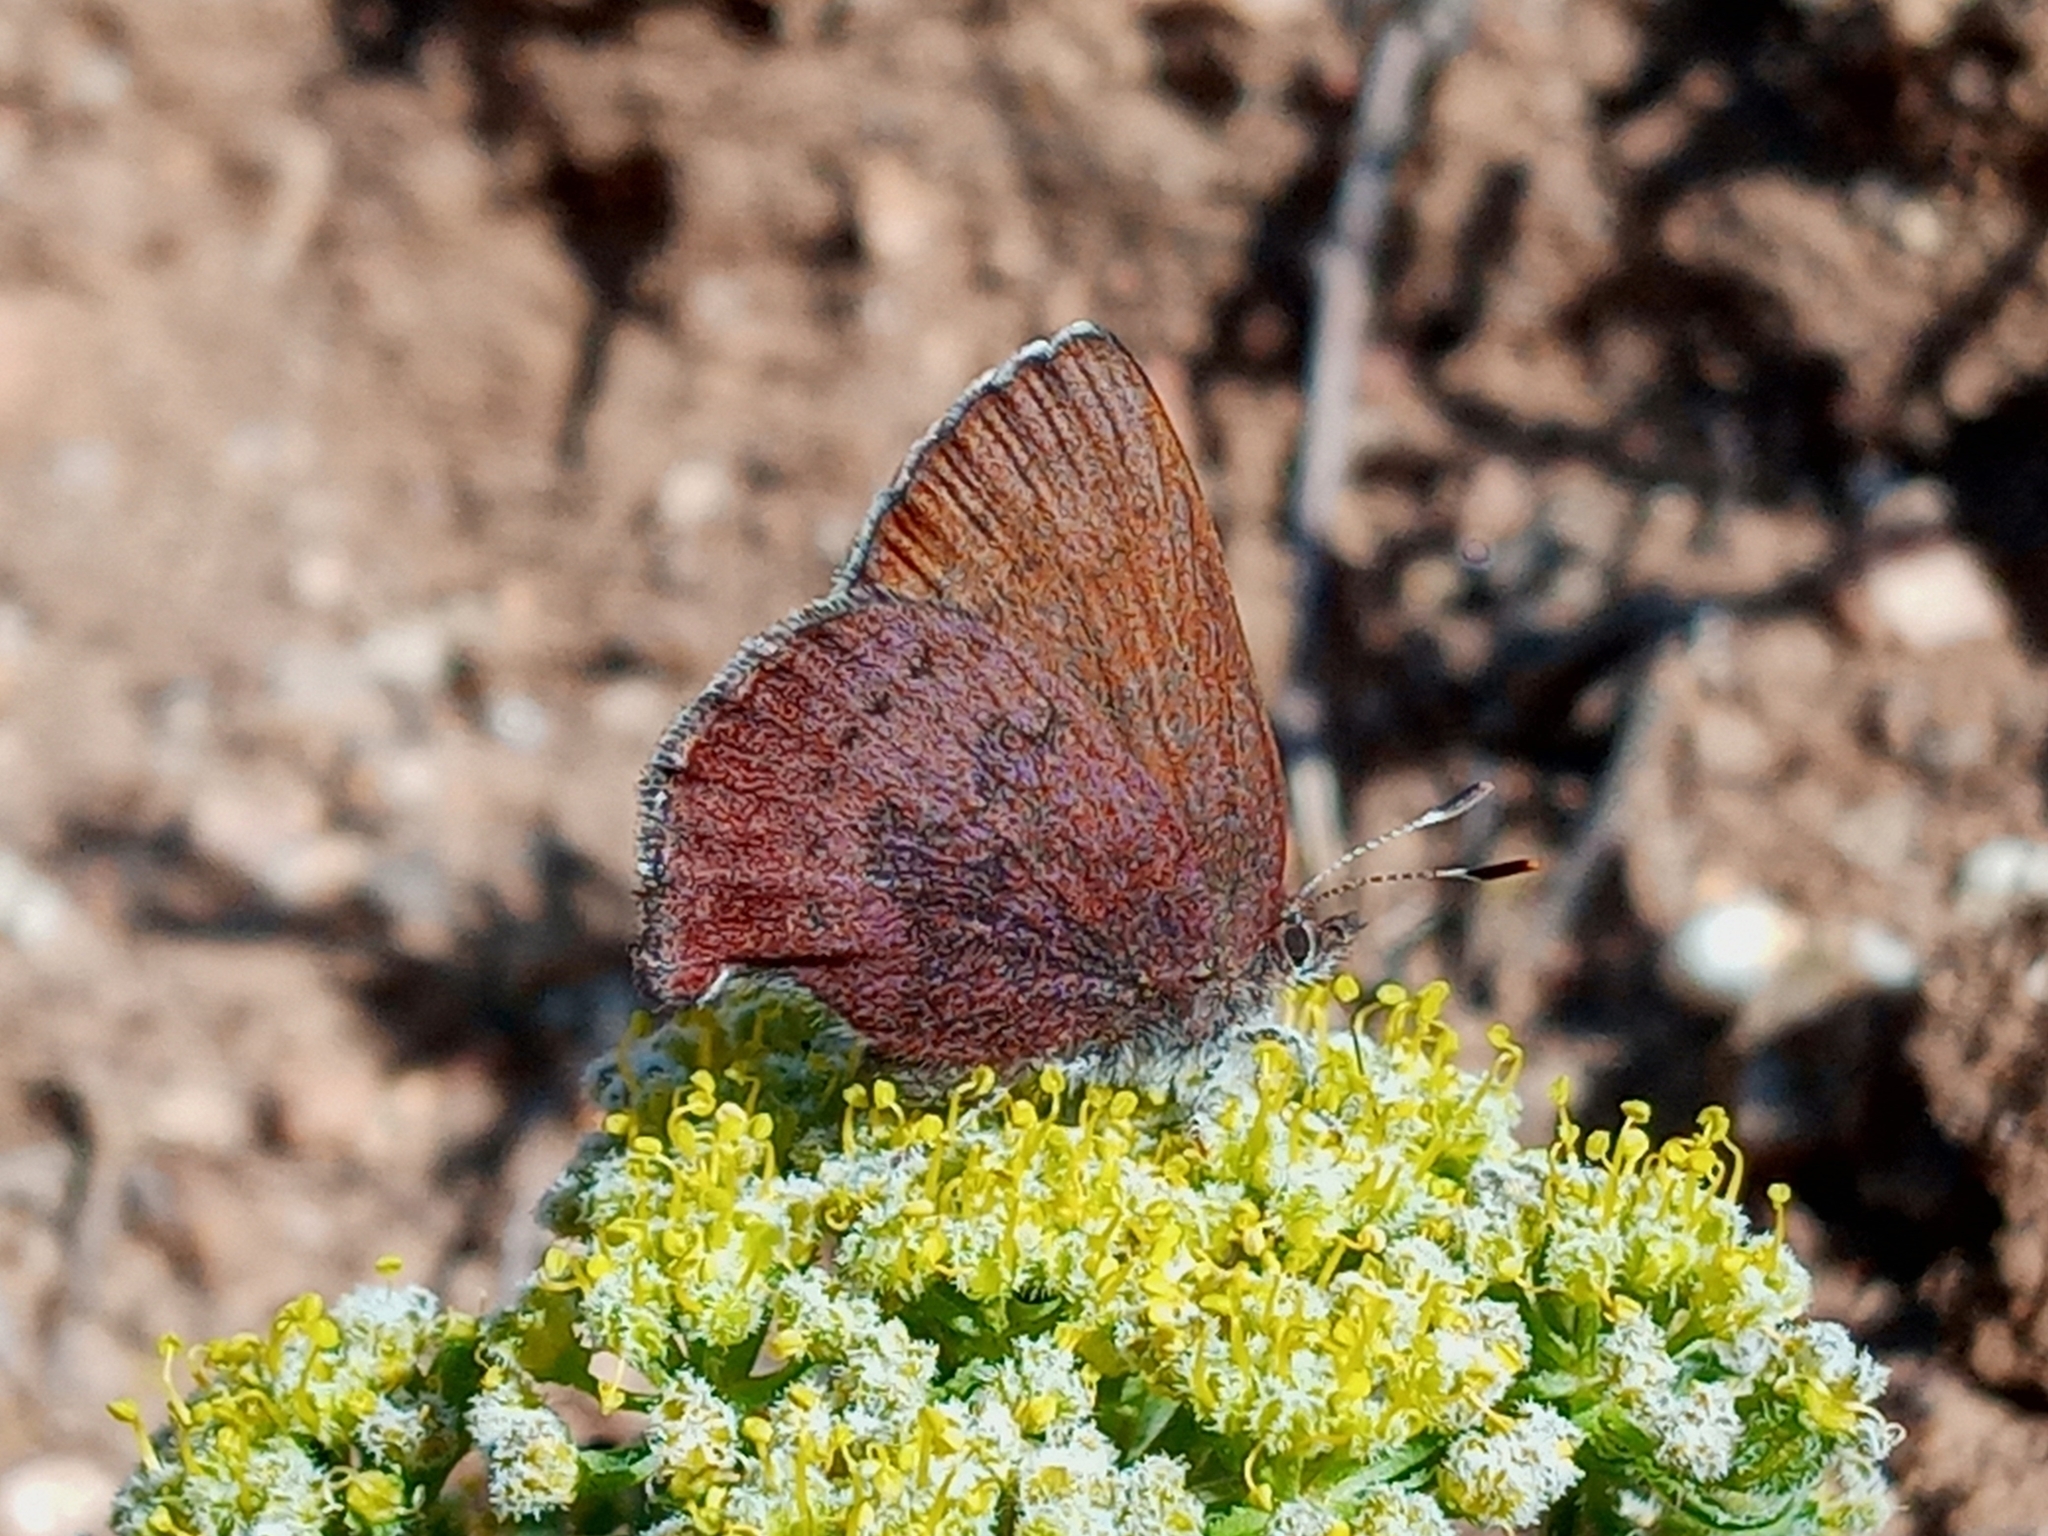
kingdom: Animalia
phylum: Arthropoda
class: Insecta
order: Lepidoptera
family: Lycaenidae
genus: Incisalia
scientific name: Incisalia irioides
